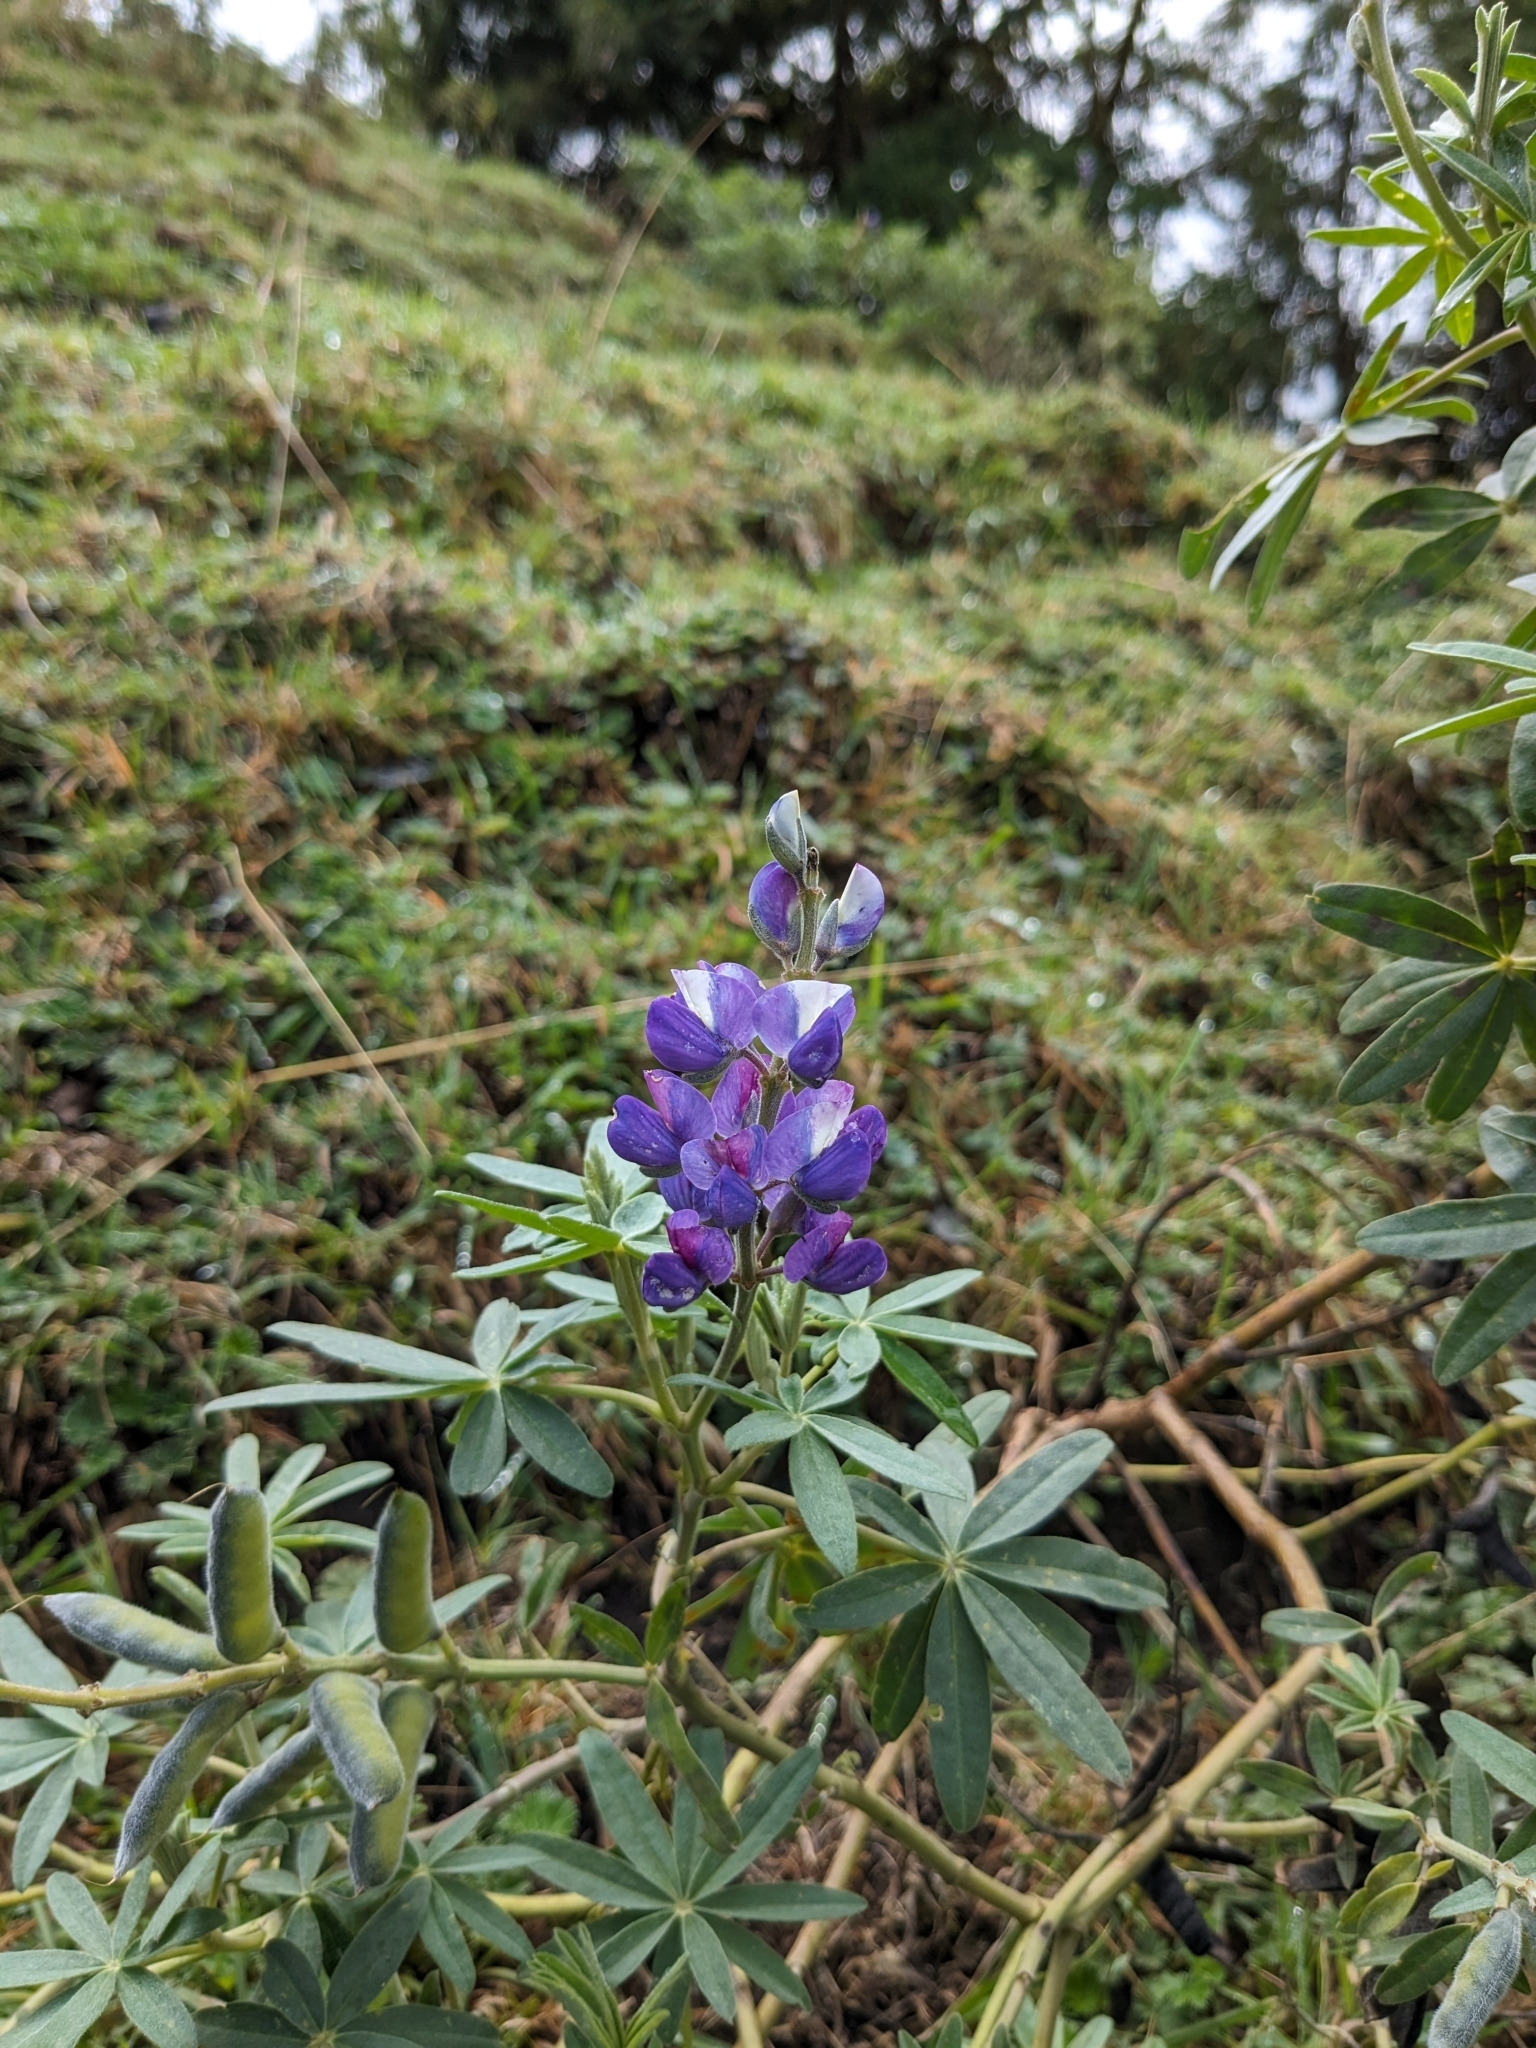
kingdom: Plantae
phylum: Tracheophyta
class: Magnoliopsida
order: Fabales
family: Fabaceae
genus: Lupinus
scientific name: Lupinus pubescens
